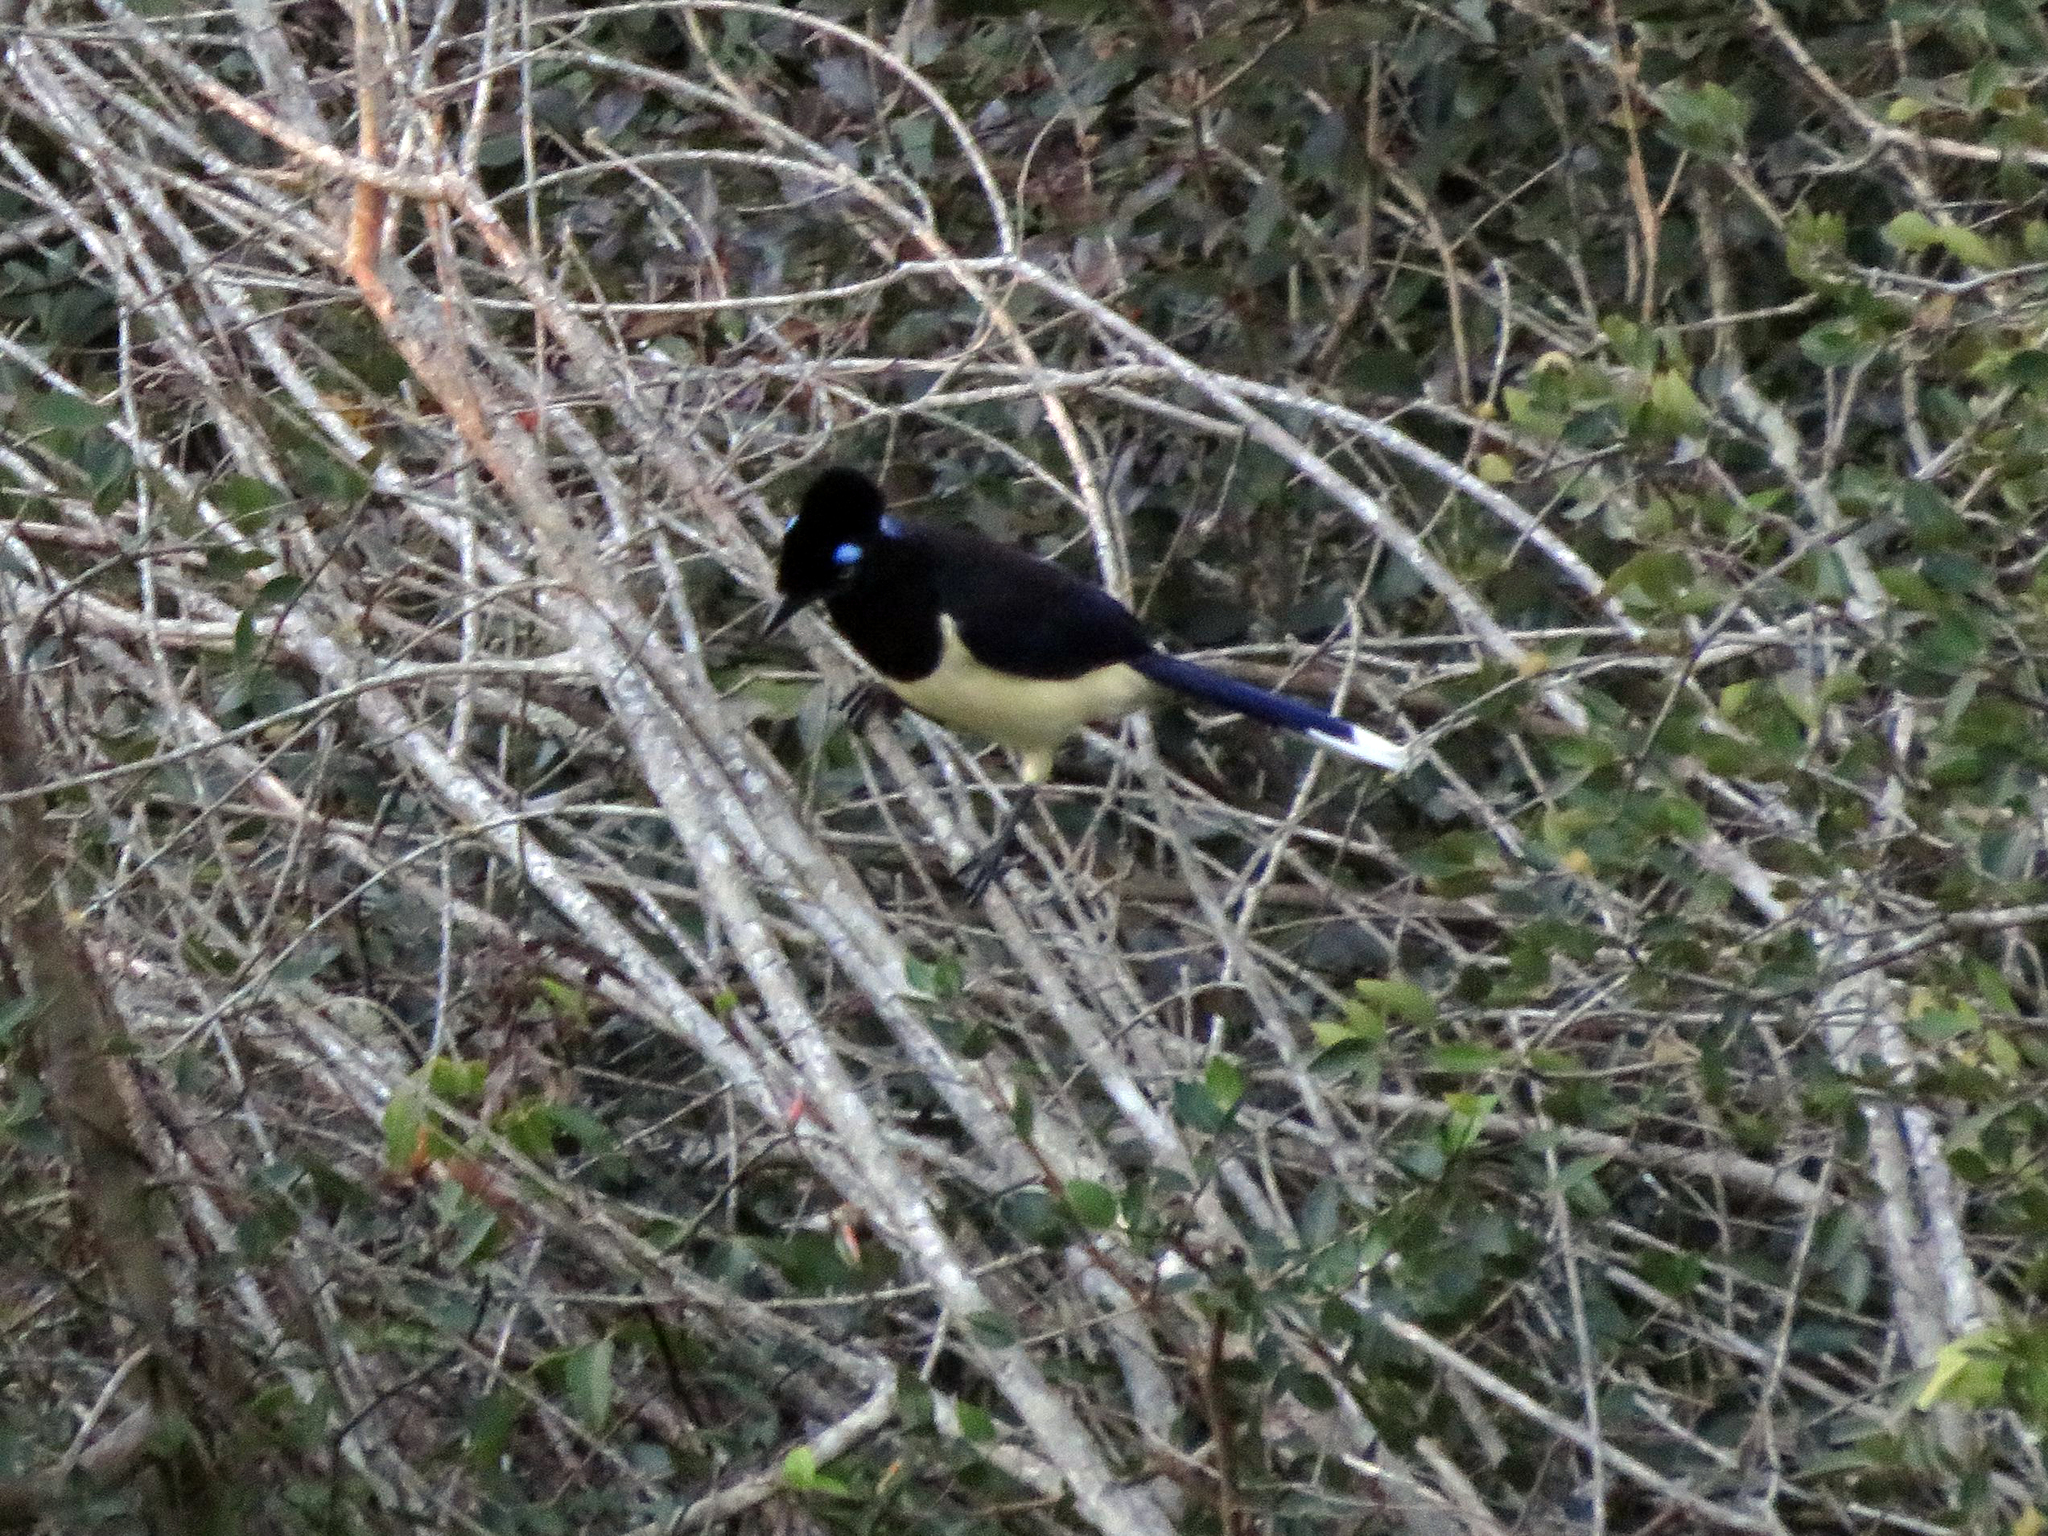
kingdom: Animalia
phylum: Chordata
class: Aves
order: Passeriformes
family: Corvidae
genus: Cyanocorax
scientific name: Cyanocorax chrysops
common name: Plush-crested jay
